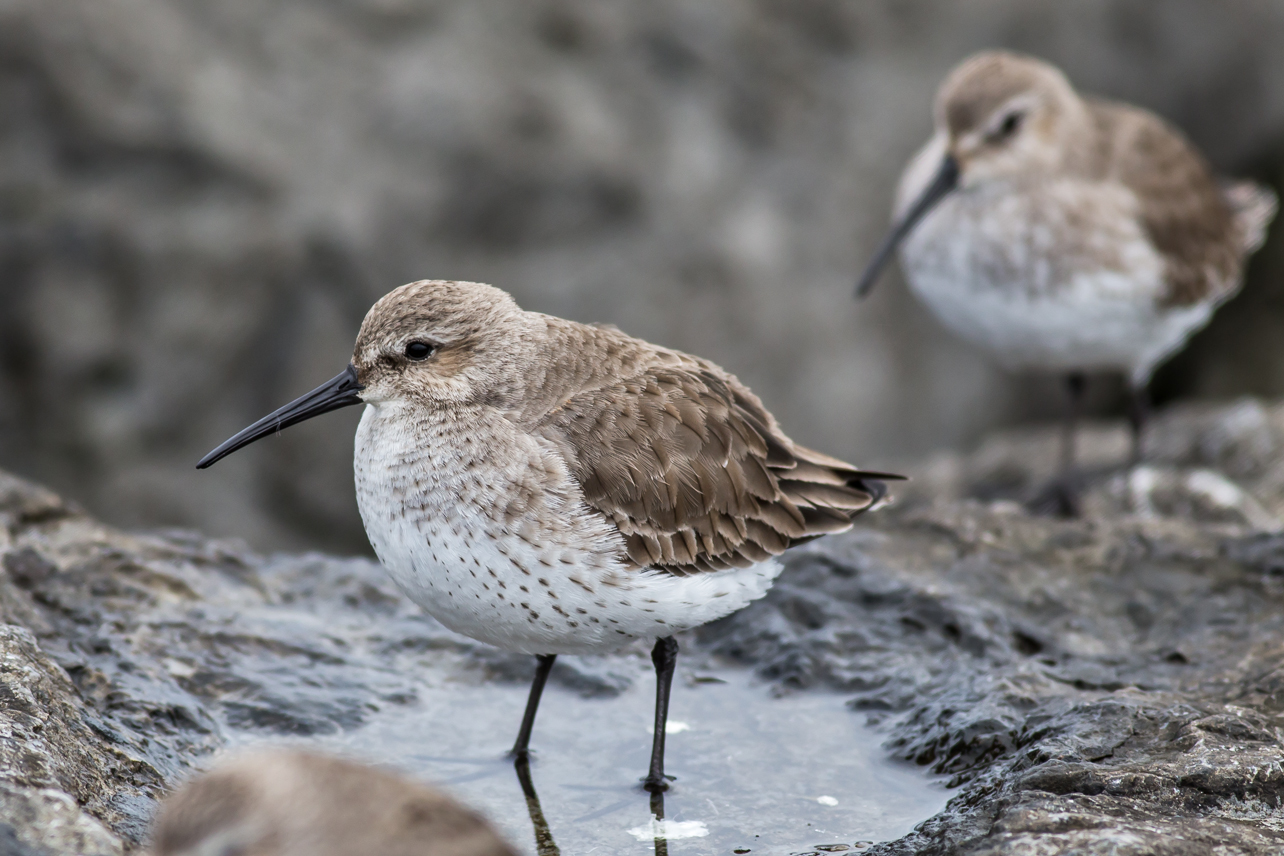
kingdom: Animalia
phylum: Chordata
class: Aves
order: Charadriiformes
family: Scolopacidae
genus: Calidris
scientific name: Calidris alpina
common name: Dunlin
